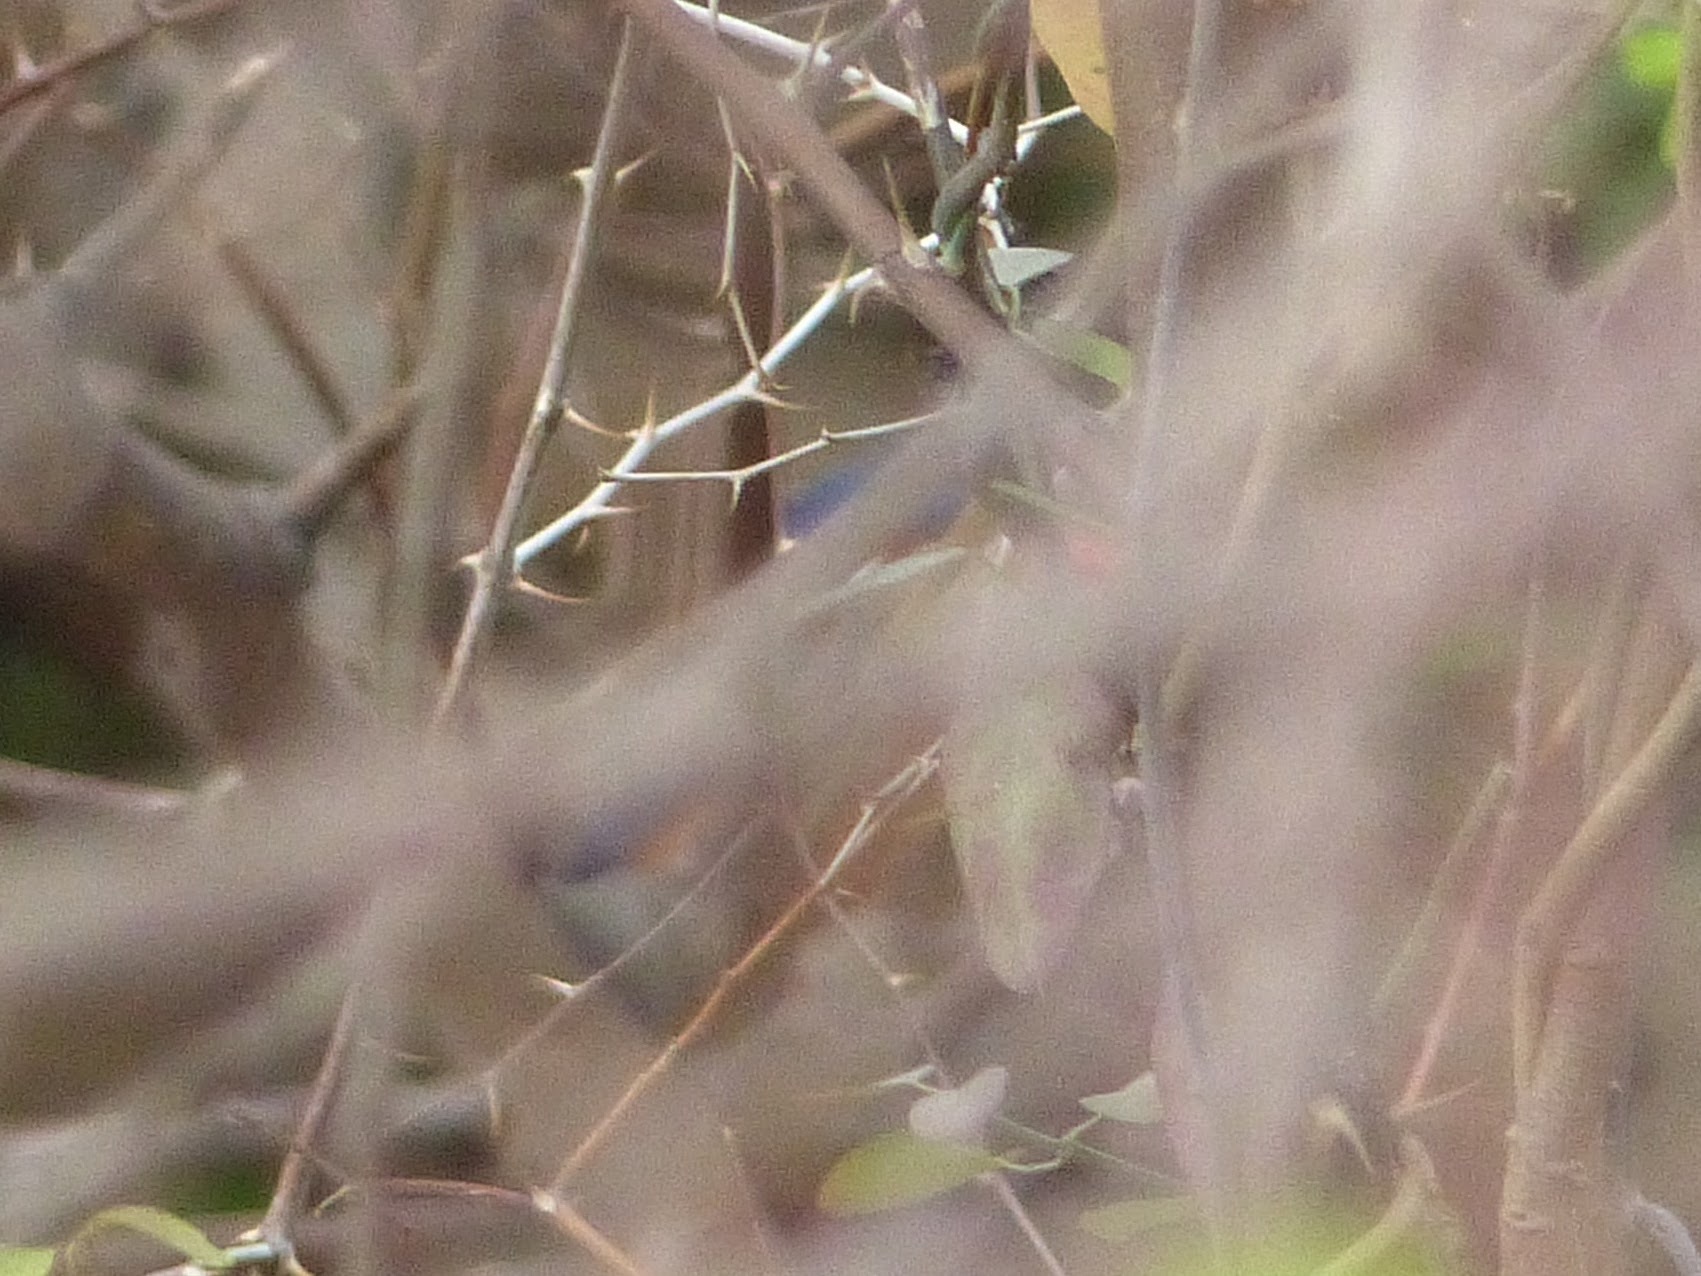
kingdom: Animalia
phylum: Chordata
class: Aves
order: Coraciiformes
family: Alcedinidae
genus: Corythornis
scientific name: Corythornis cristatus
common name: Malachite kingfisher
